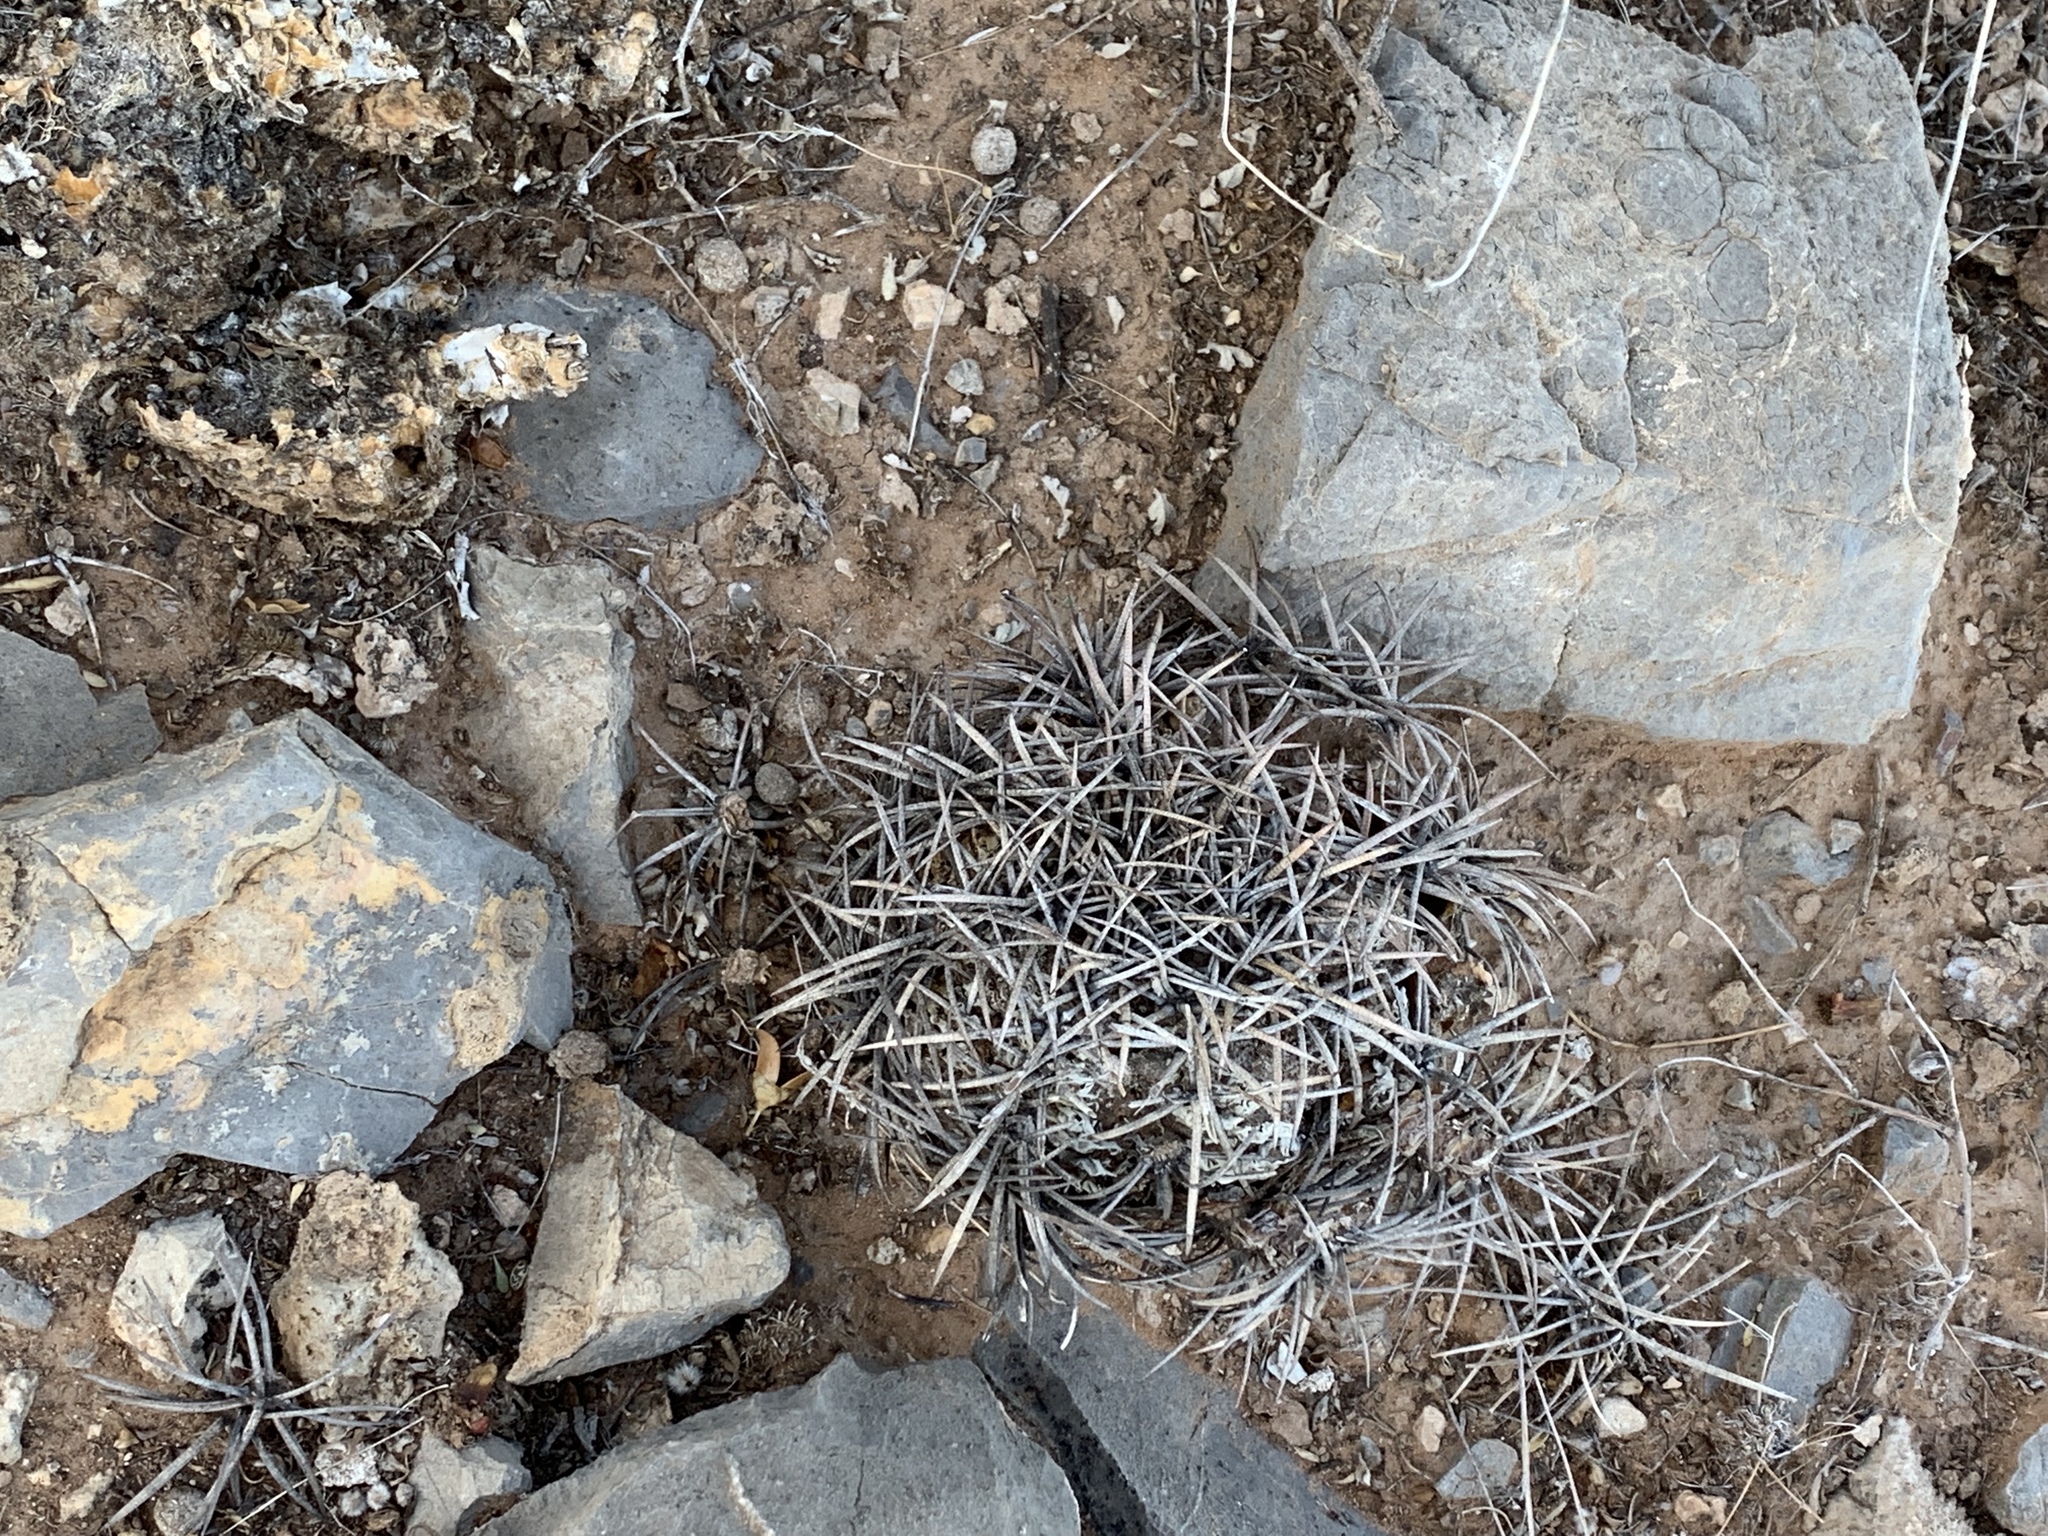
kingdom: Plantae
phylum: Tracheophyta
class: Magnoliopsida
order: Caryophyllales
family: Cactaceae
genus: Echinocactus
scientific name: Echinocactus horizonthalonius
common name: Devilshead
